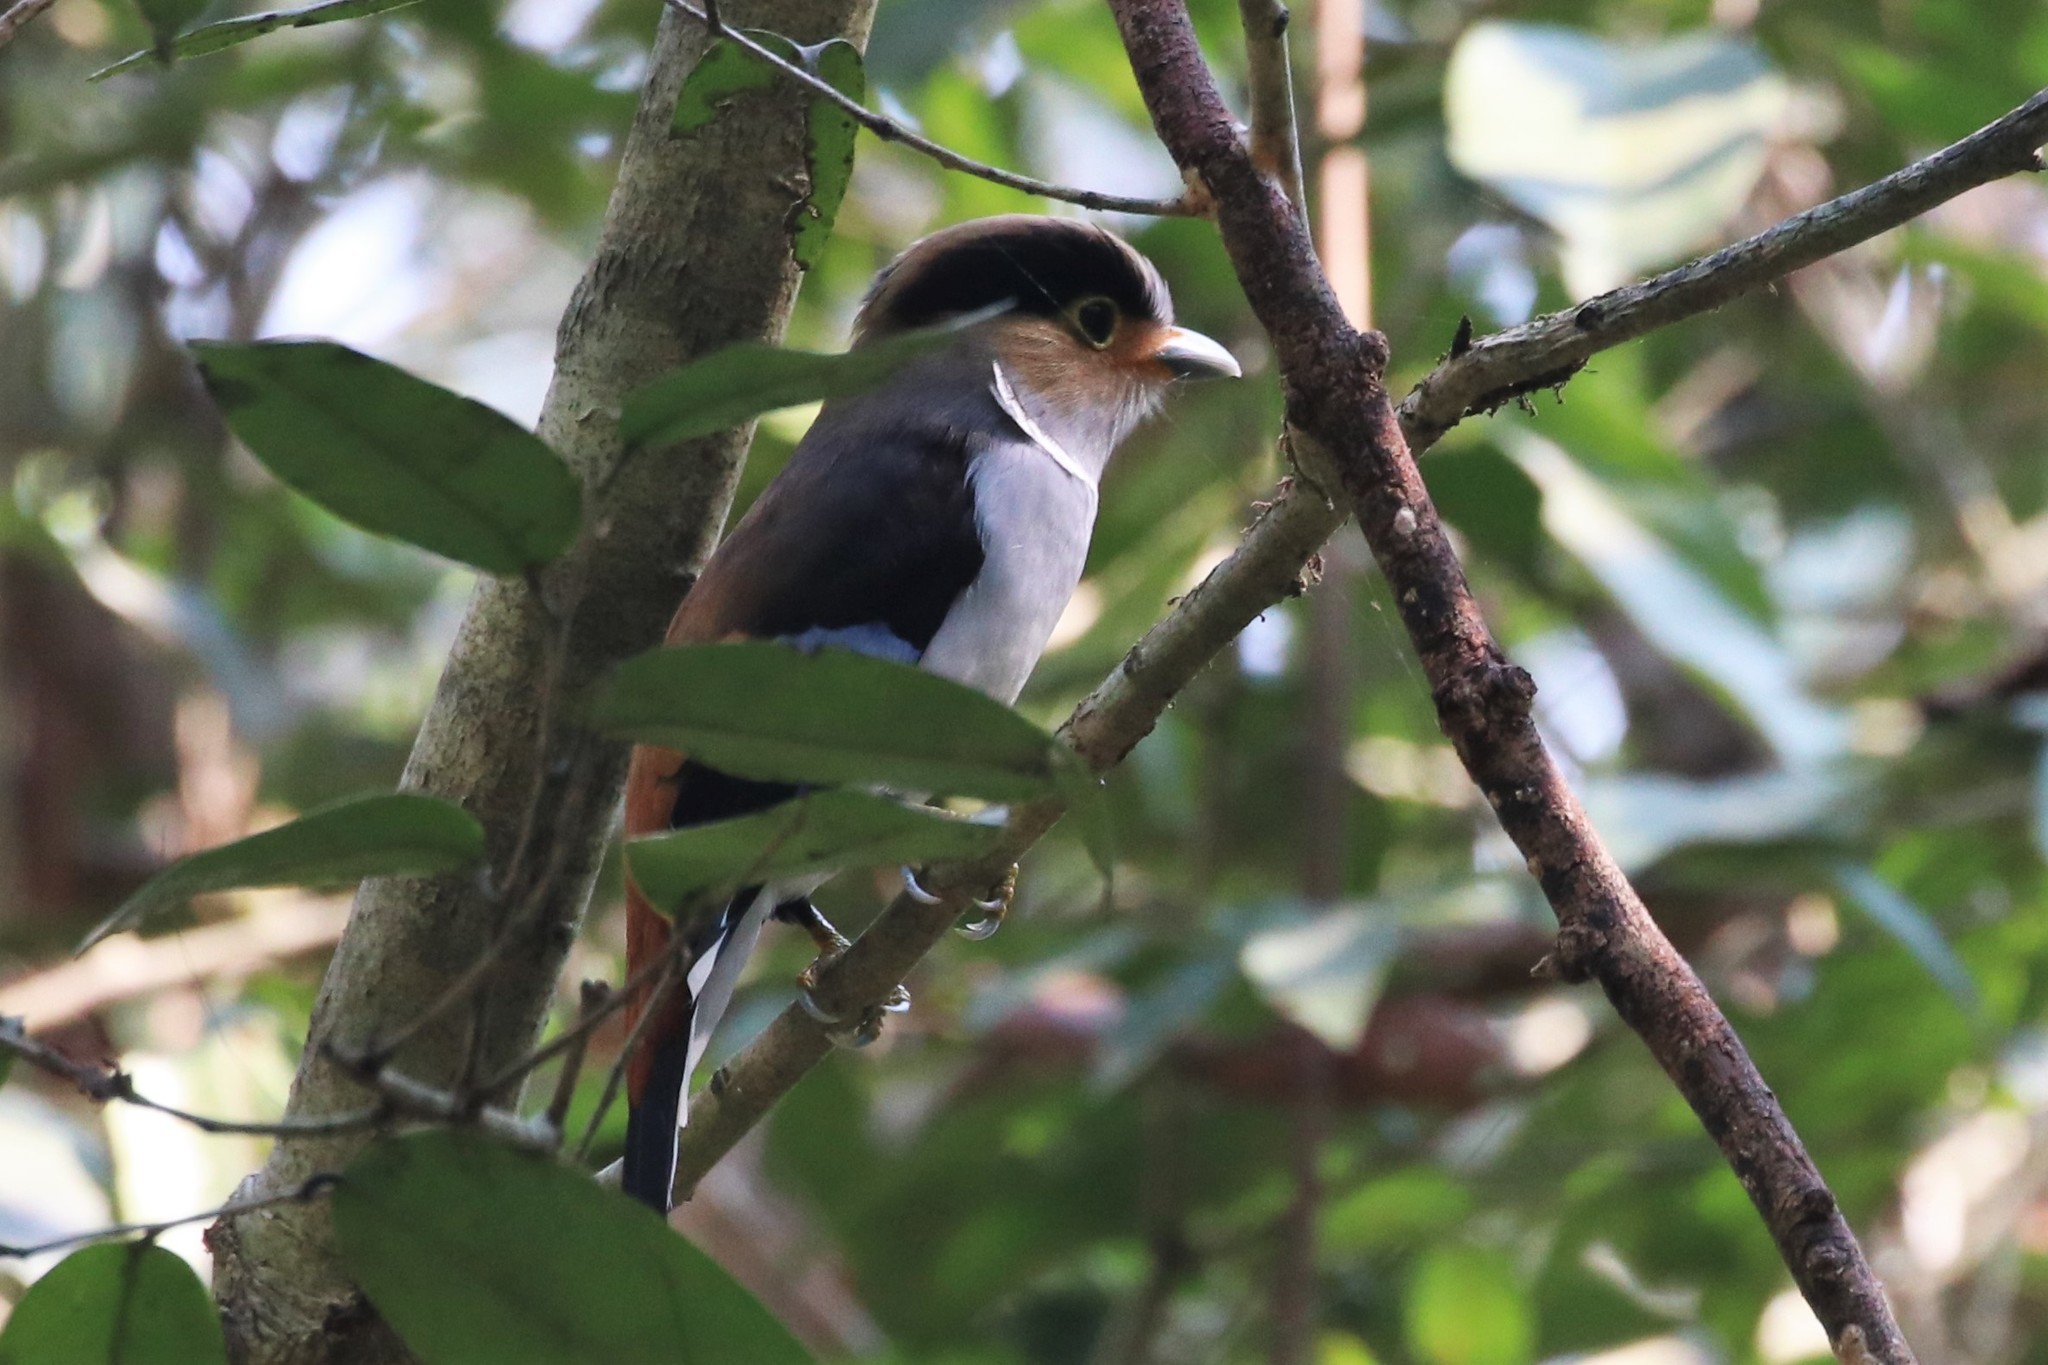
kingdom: Animalia
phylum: Chordata
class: Aves
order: Passeriformes
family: Eurylaimidae
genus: Serilophus
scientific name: Serilophus lunatus
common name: Silver-breasted broadbill
